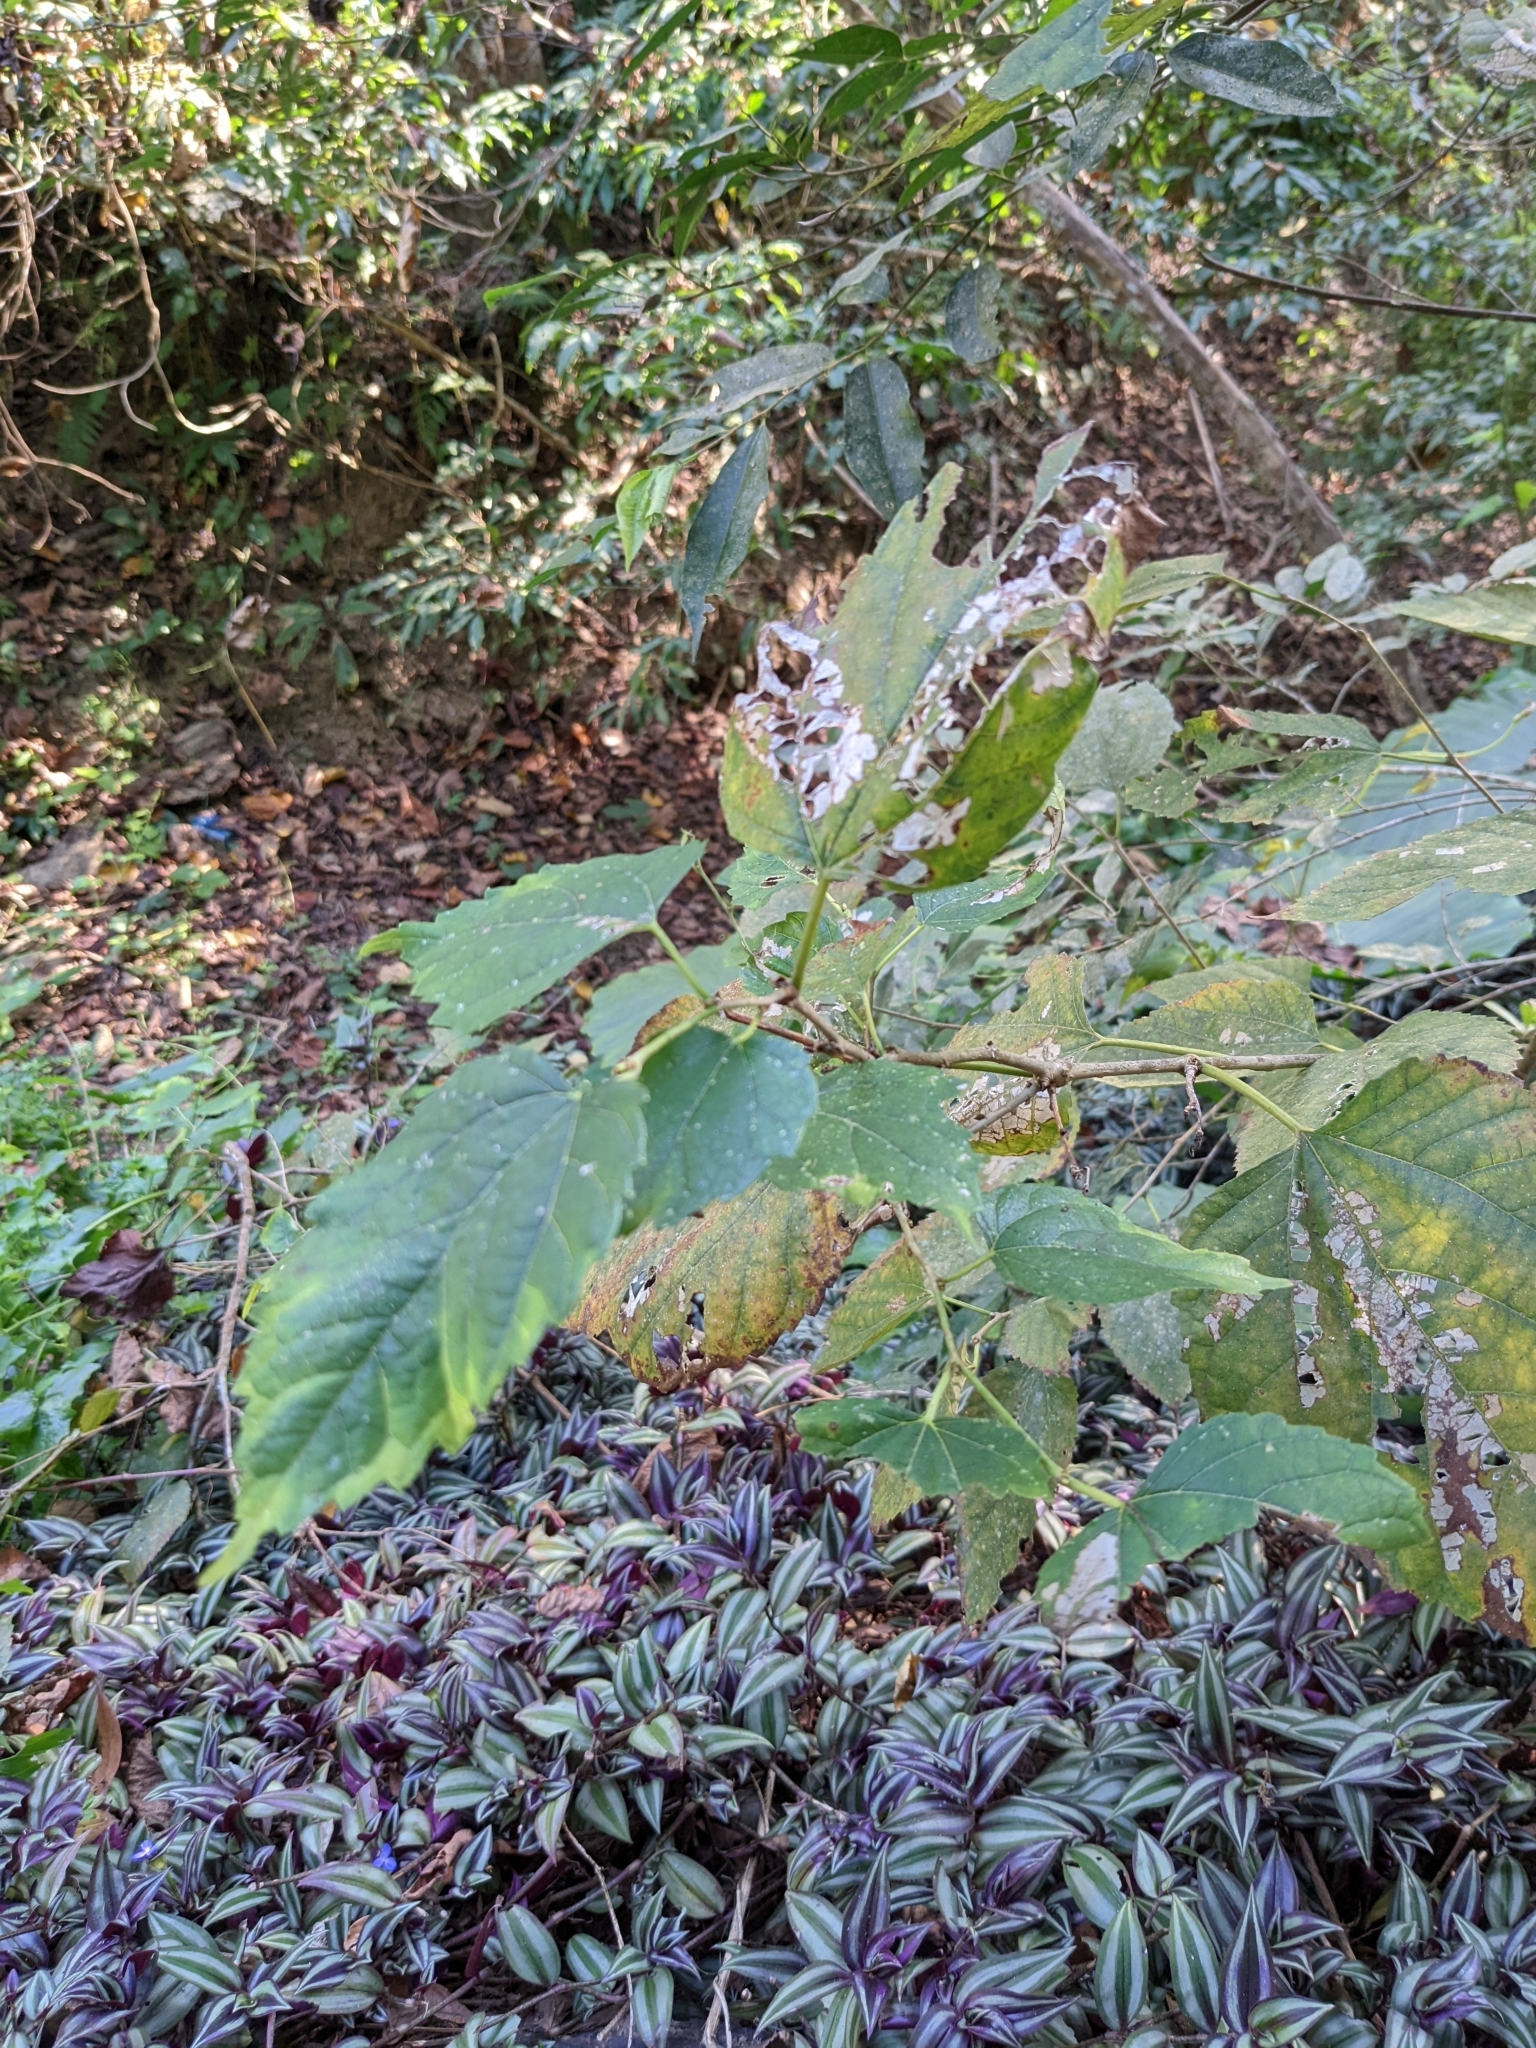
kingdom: Plantae
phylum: Tracheophyta
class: Magnoliopsida
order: Rosales
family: Moraceae
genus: Morus
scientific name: Morus indica
